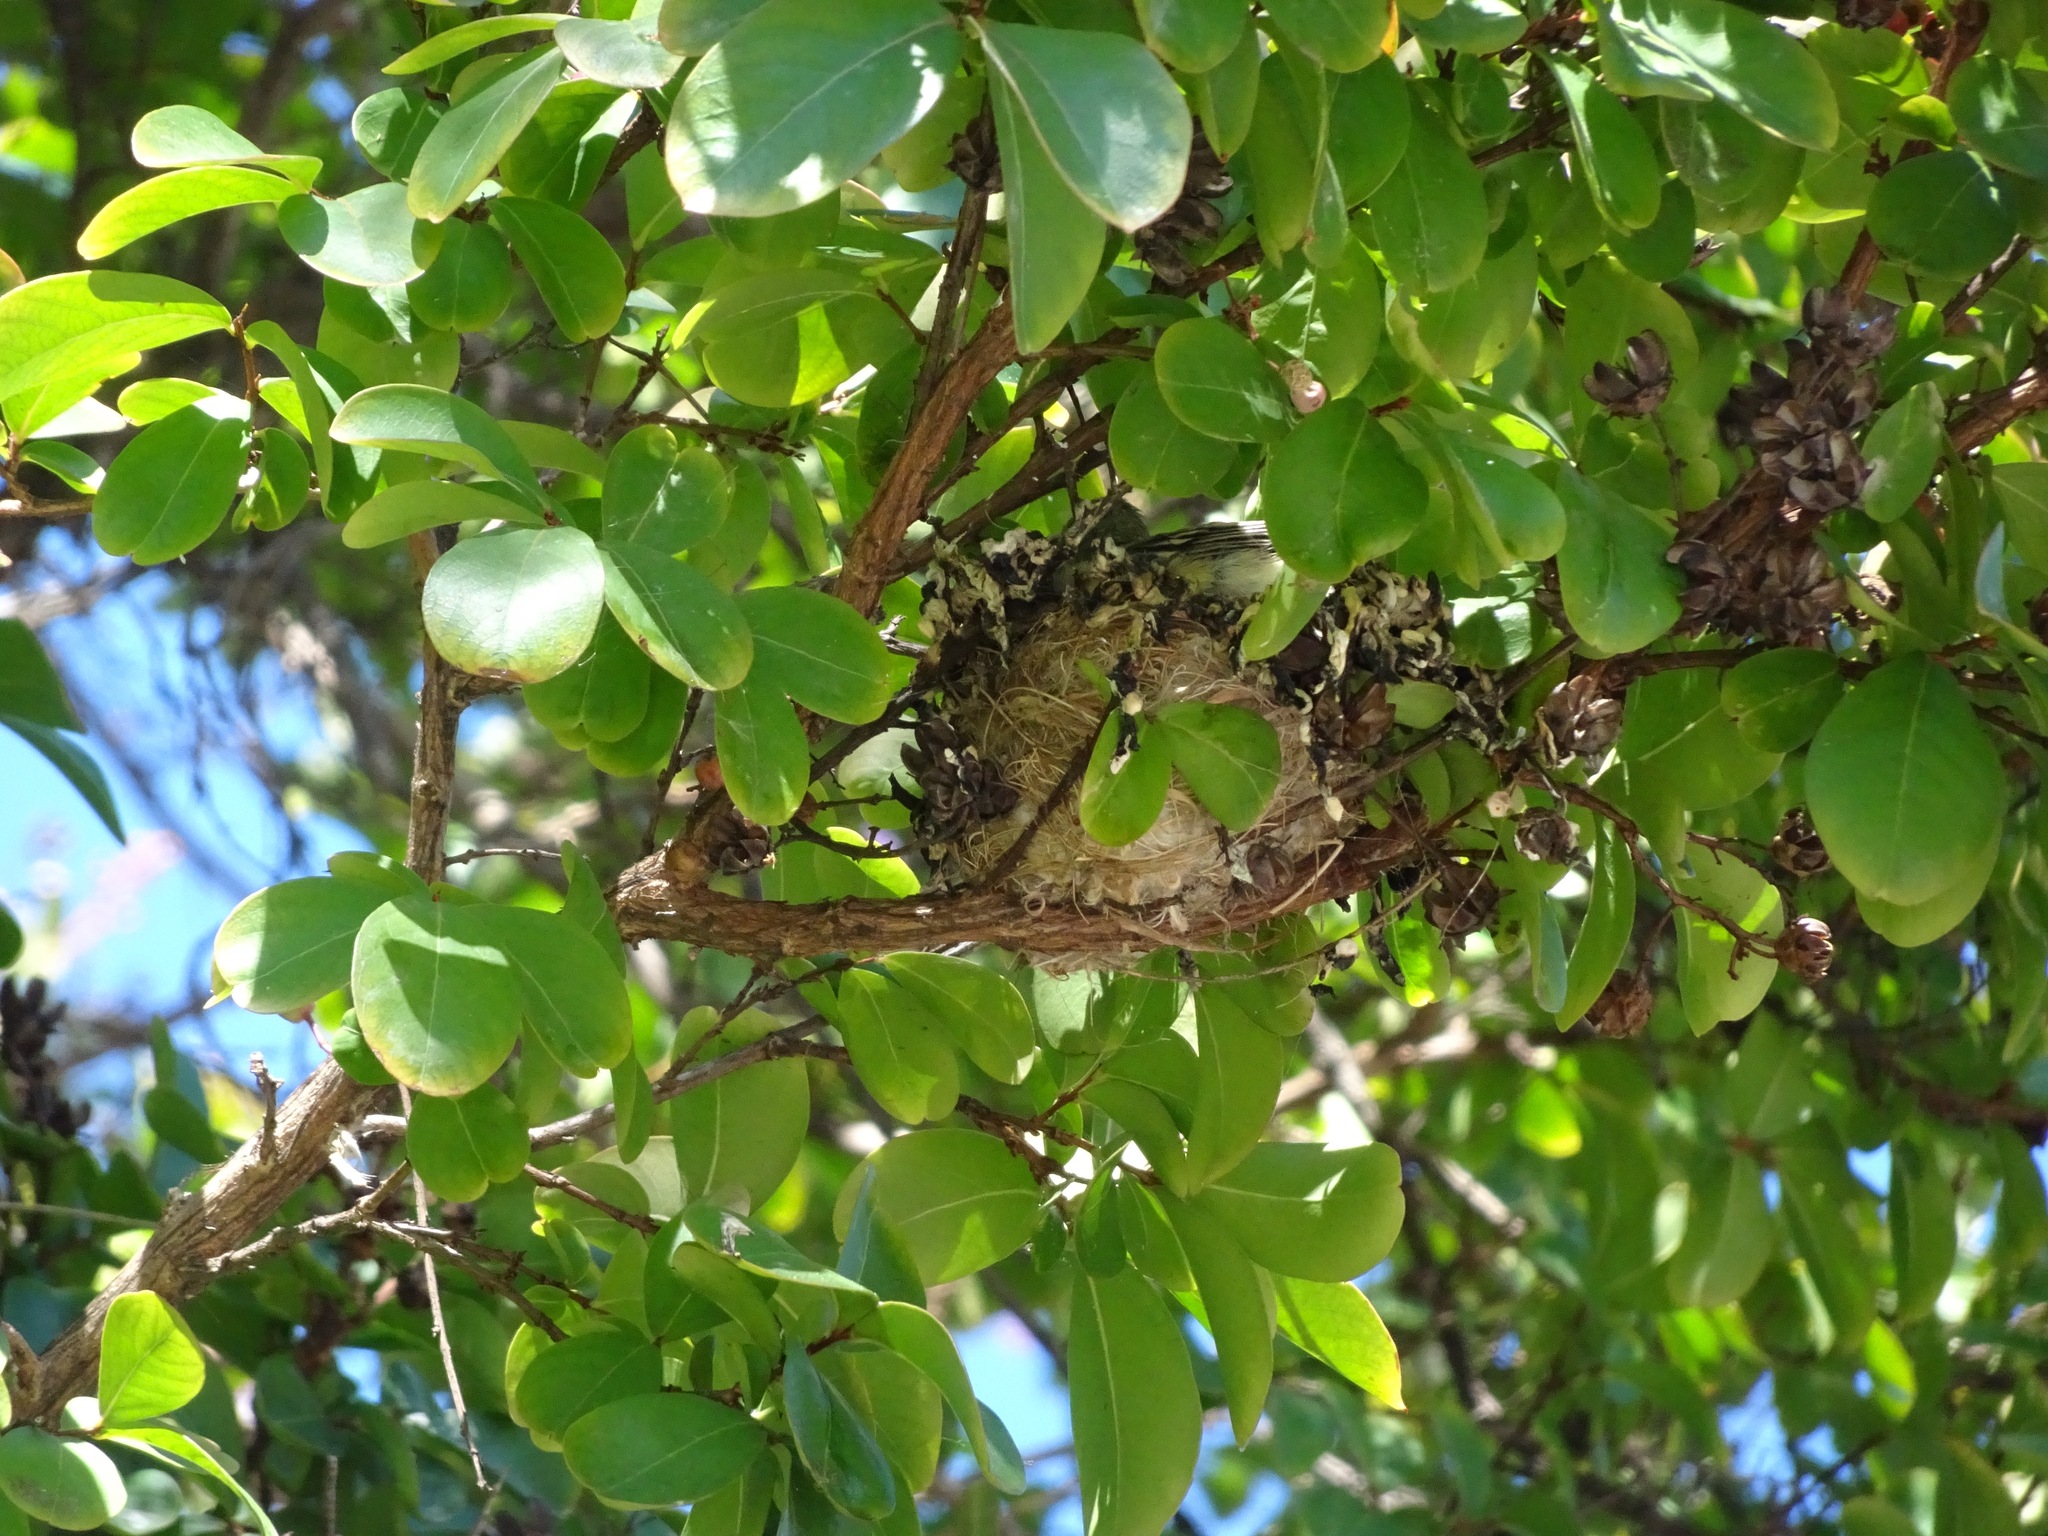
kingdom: Animalia
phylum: Chordata
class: Aves
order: Passeriformes
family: Fringillidae
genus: Spinus
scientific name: Spinus psaltria
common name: Lesser goldfinch
